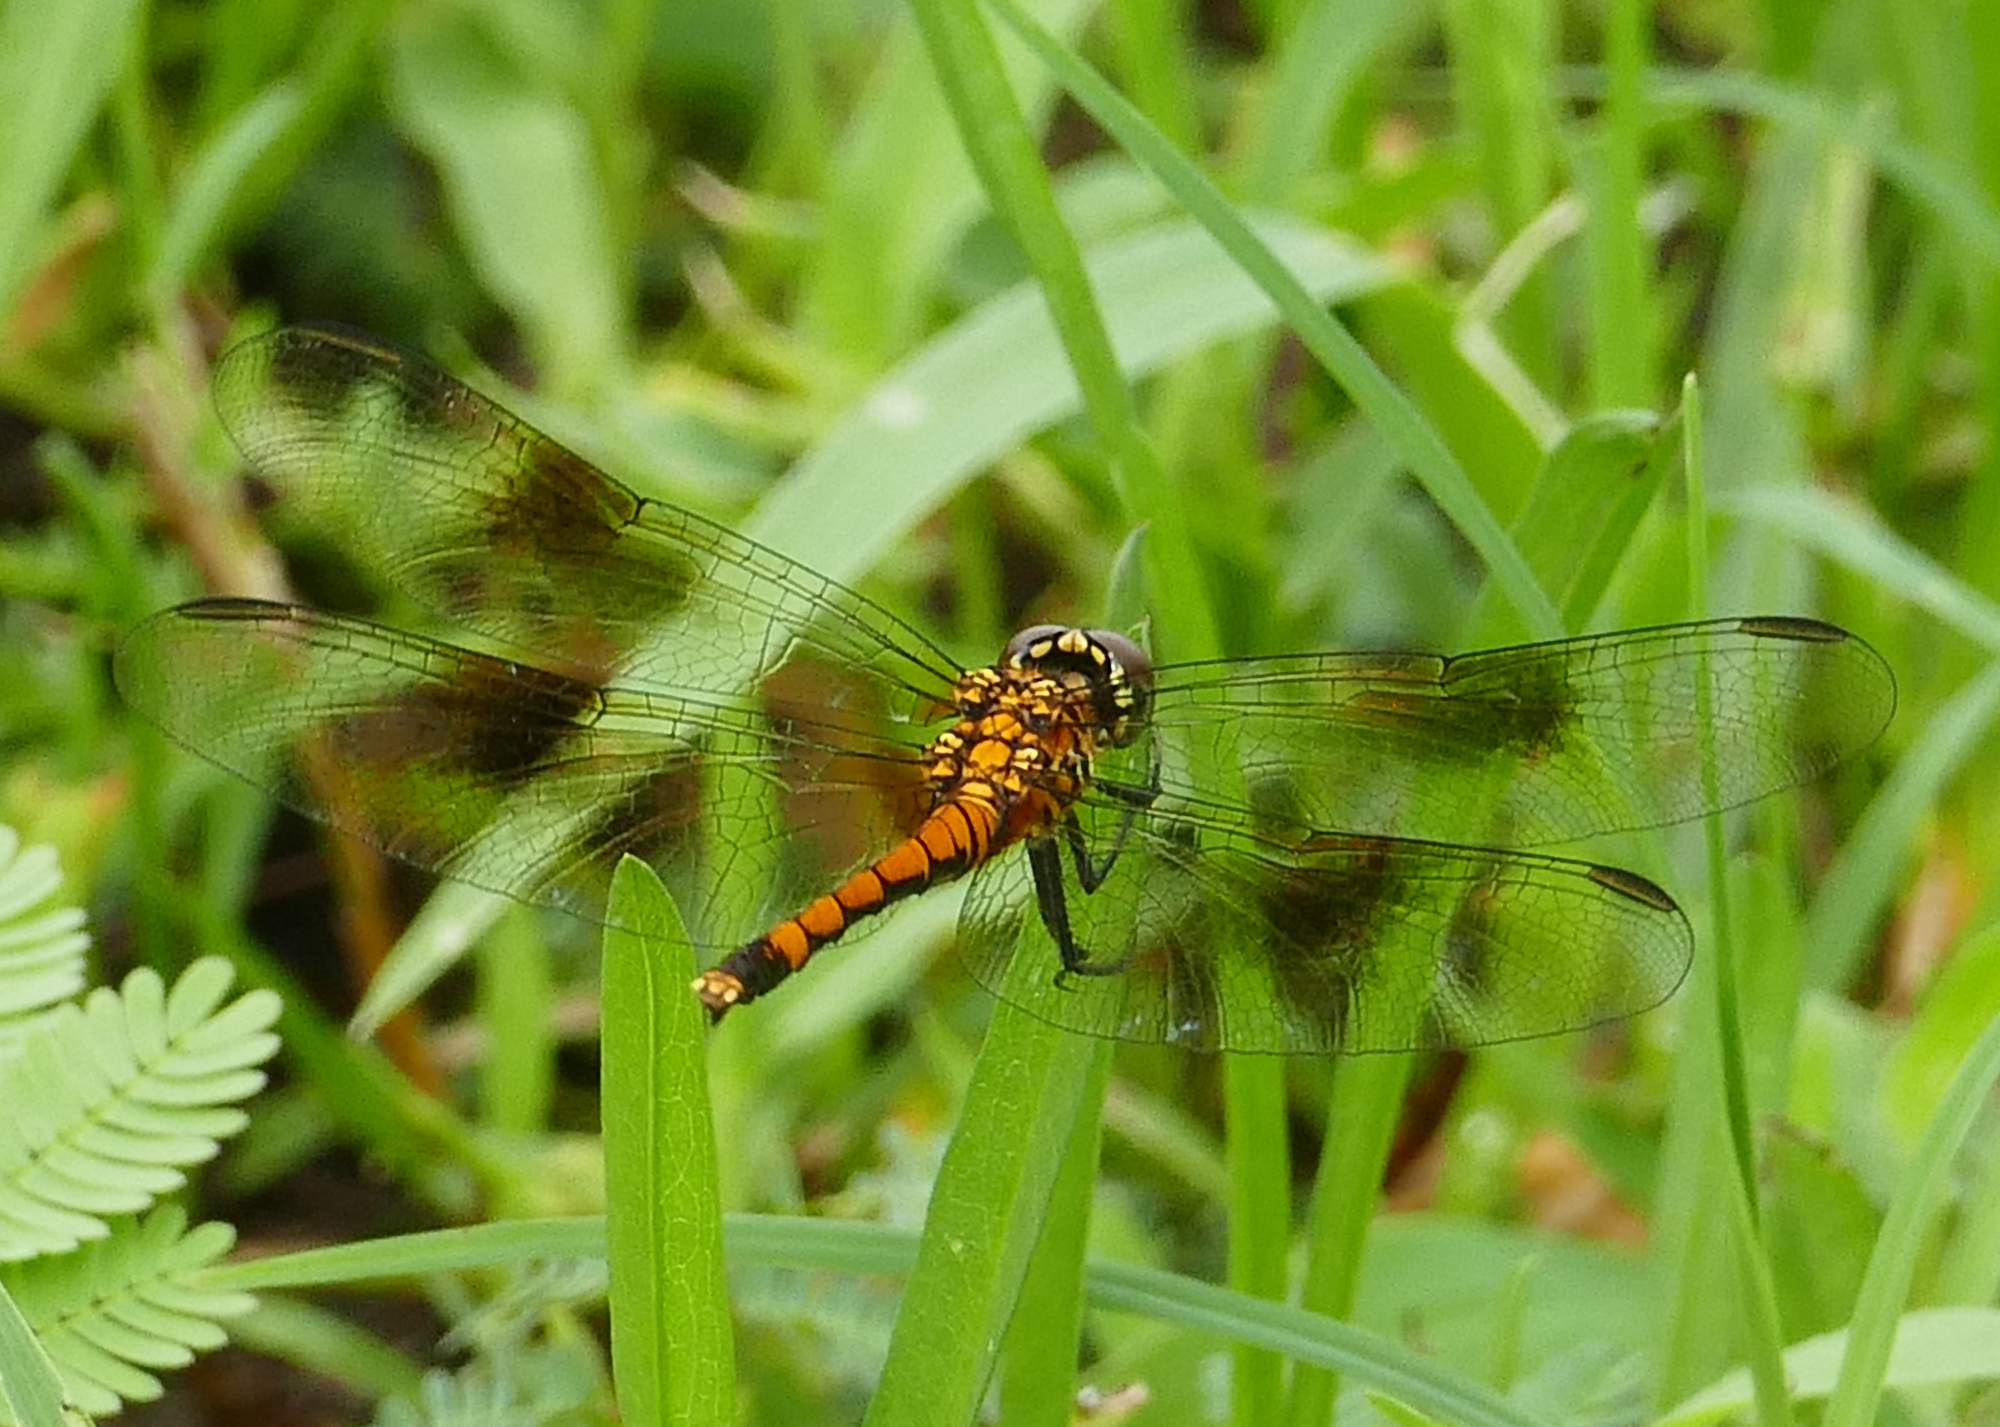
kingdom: Animalia
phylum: Arthropoda
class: Insecta
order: Odonata
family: Libellulidae
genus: Erythrodiplax
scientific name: Erythrodiplax berenice
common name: Seaside dragonlet
